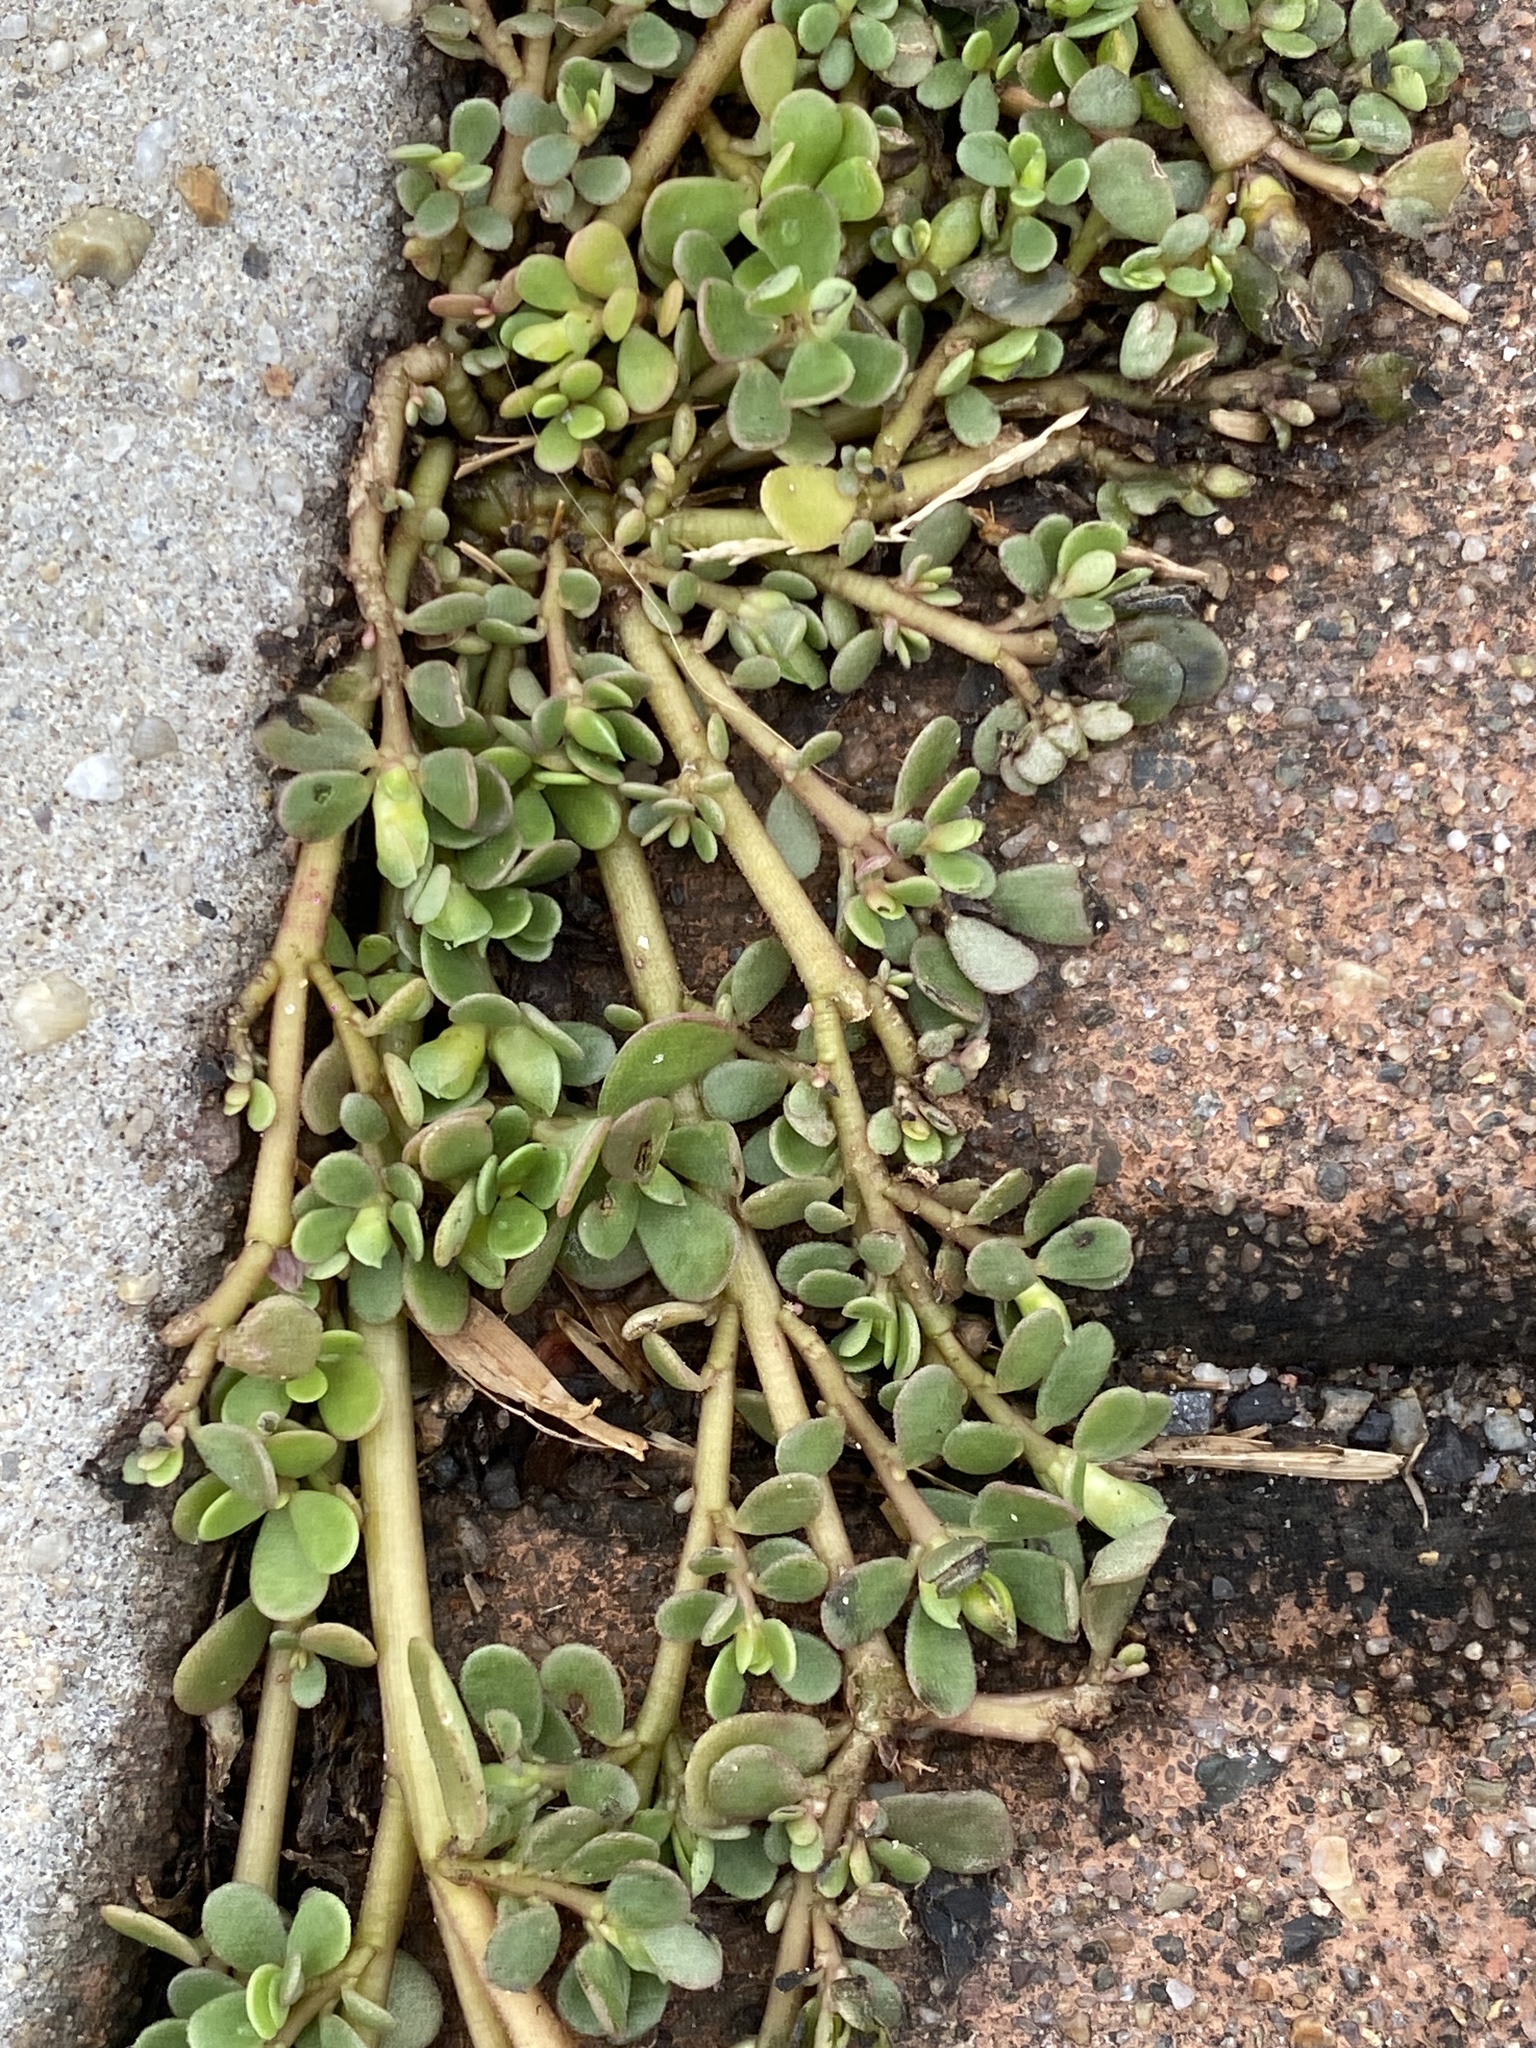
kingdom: Plantae
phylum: Tracheophyta
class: Magnoliopsida
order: Caryophyllales
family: Portulacaceae
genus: Portulaca
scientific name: Portulaca oleracea
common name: Common purslane
